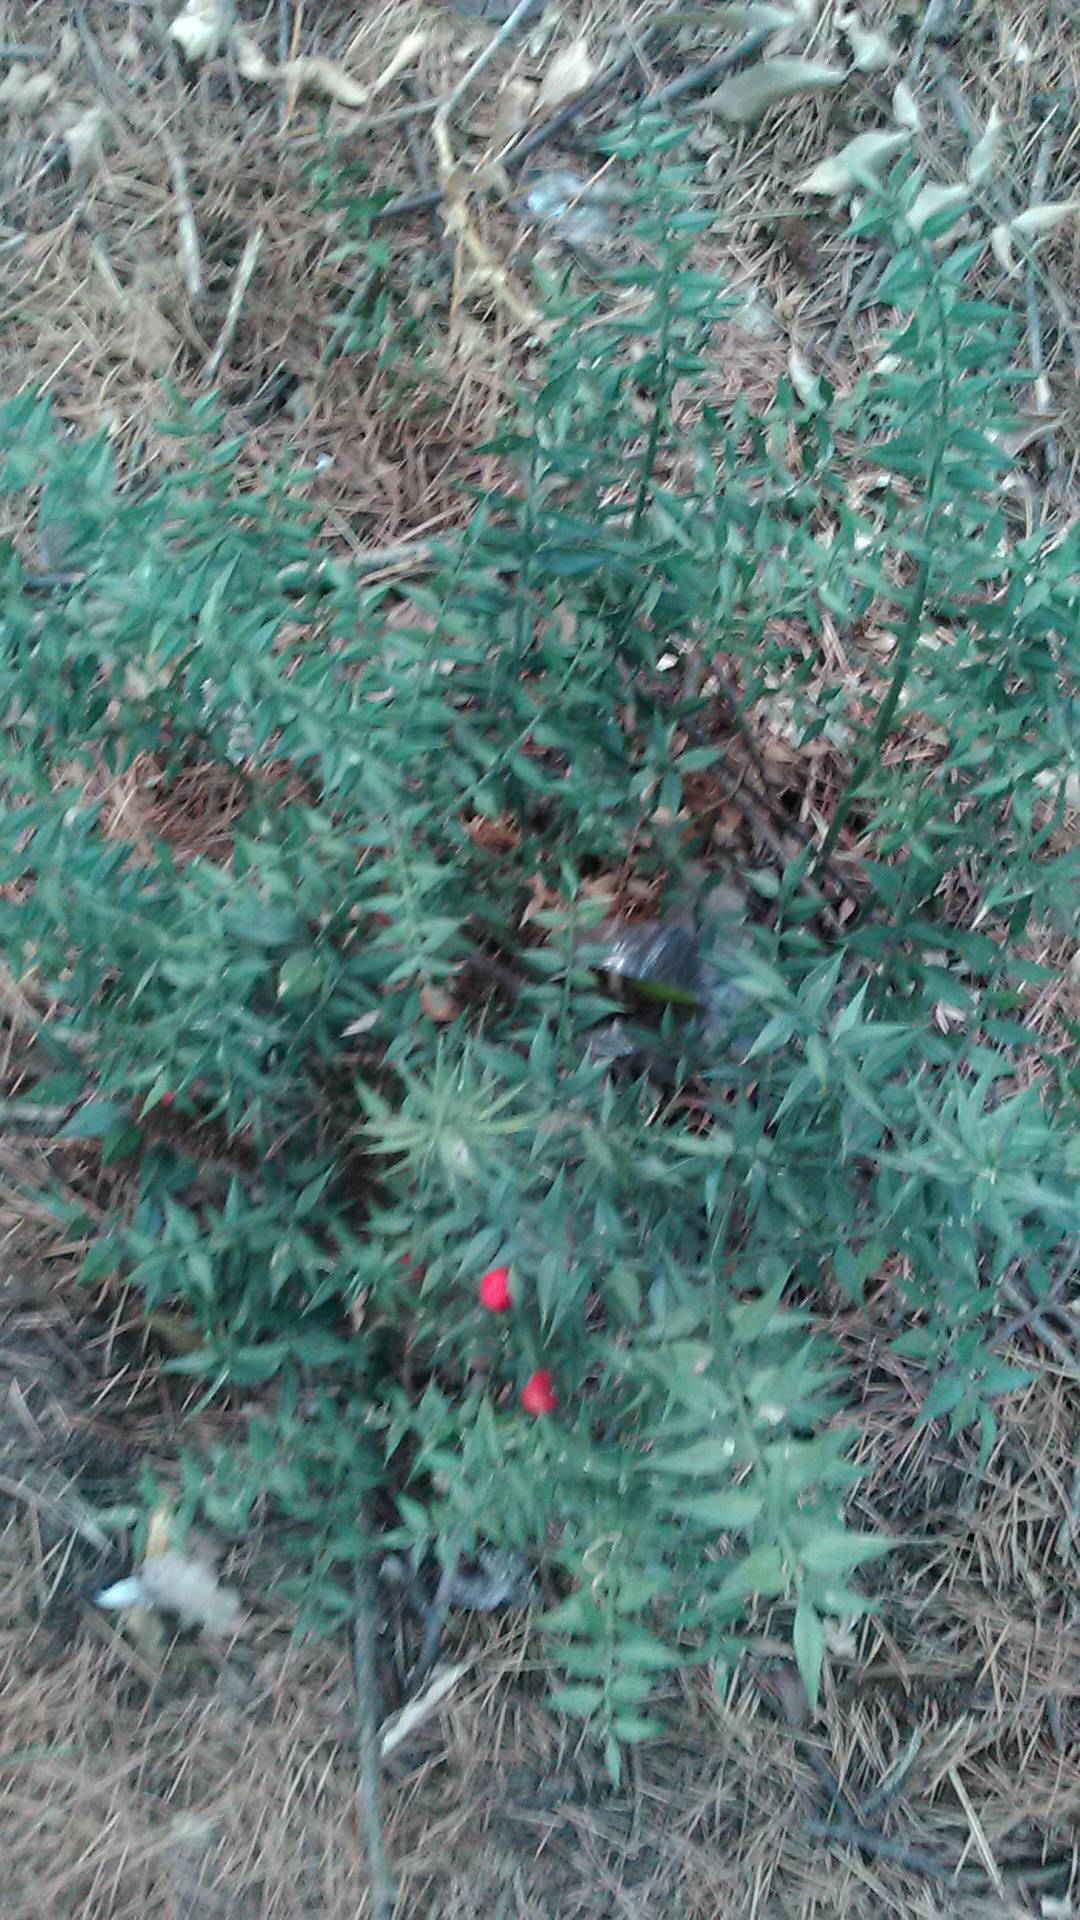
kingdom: Plantae
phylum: Tracheophyta
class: Liliopsida
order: Asparagales
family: Asparagaceae
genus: Ruscus
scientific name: Ruscus aculeatus
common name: Butcher's-broom
